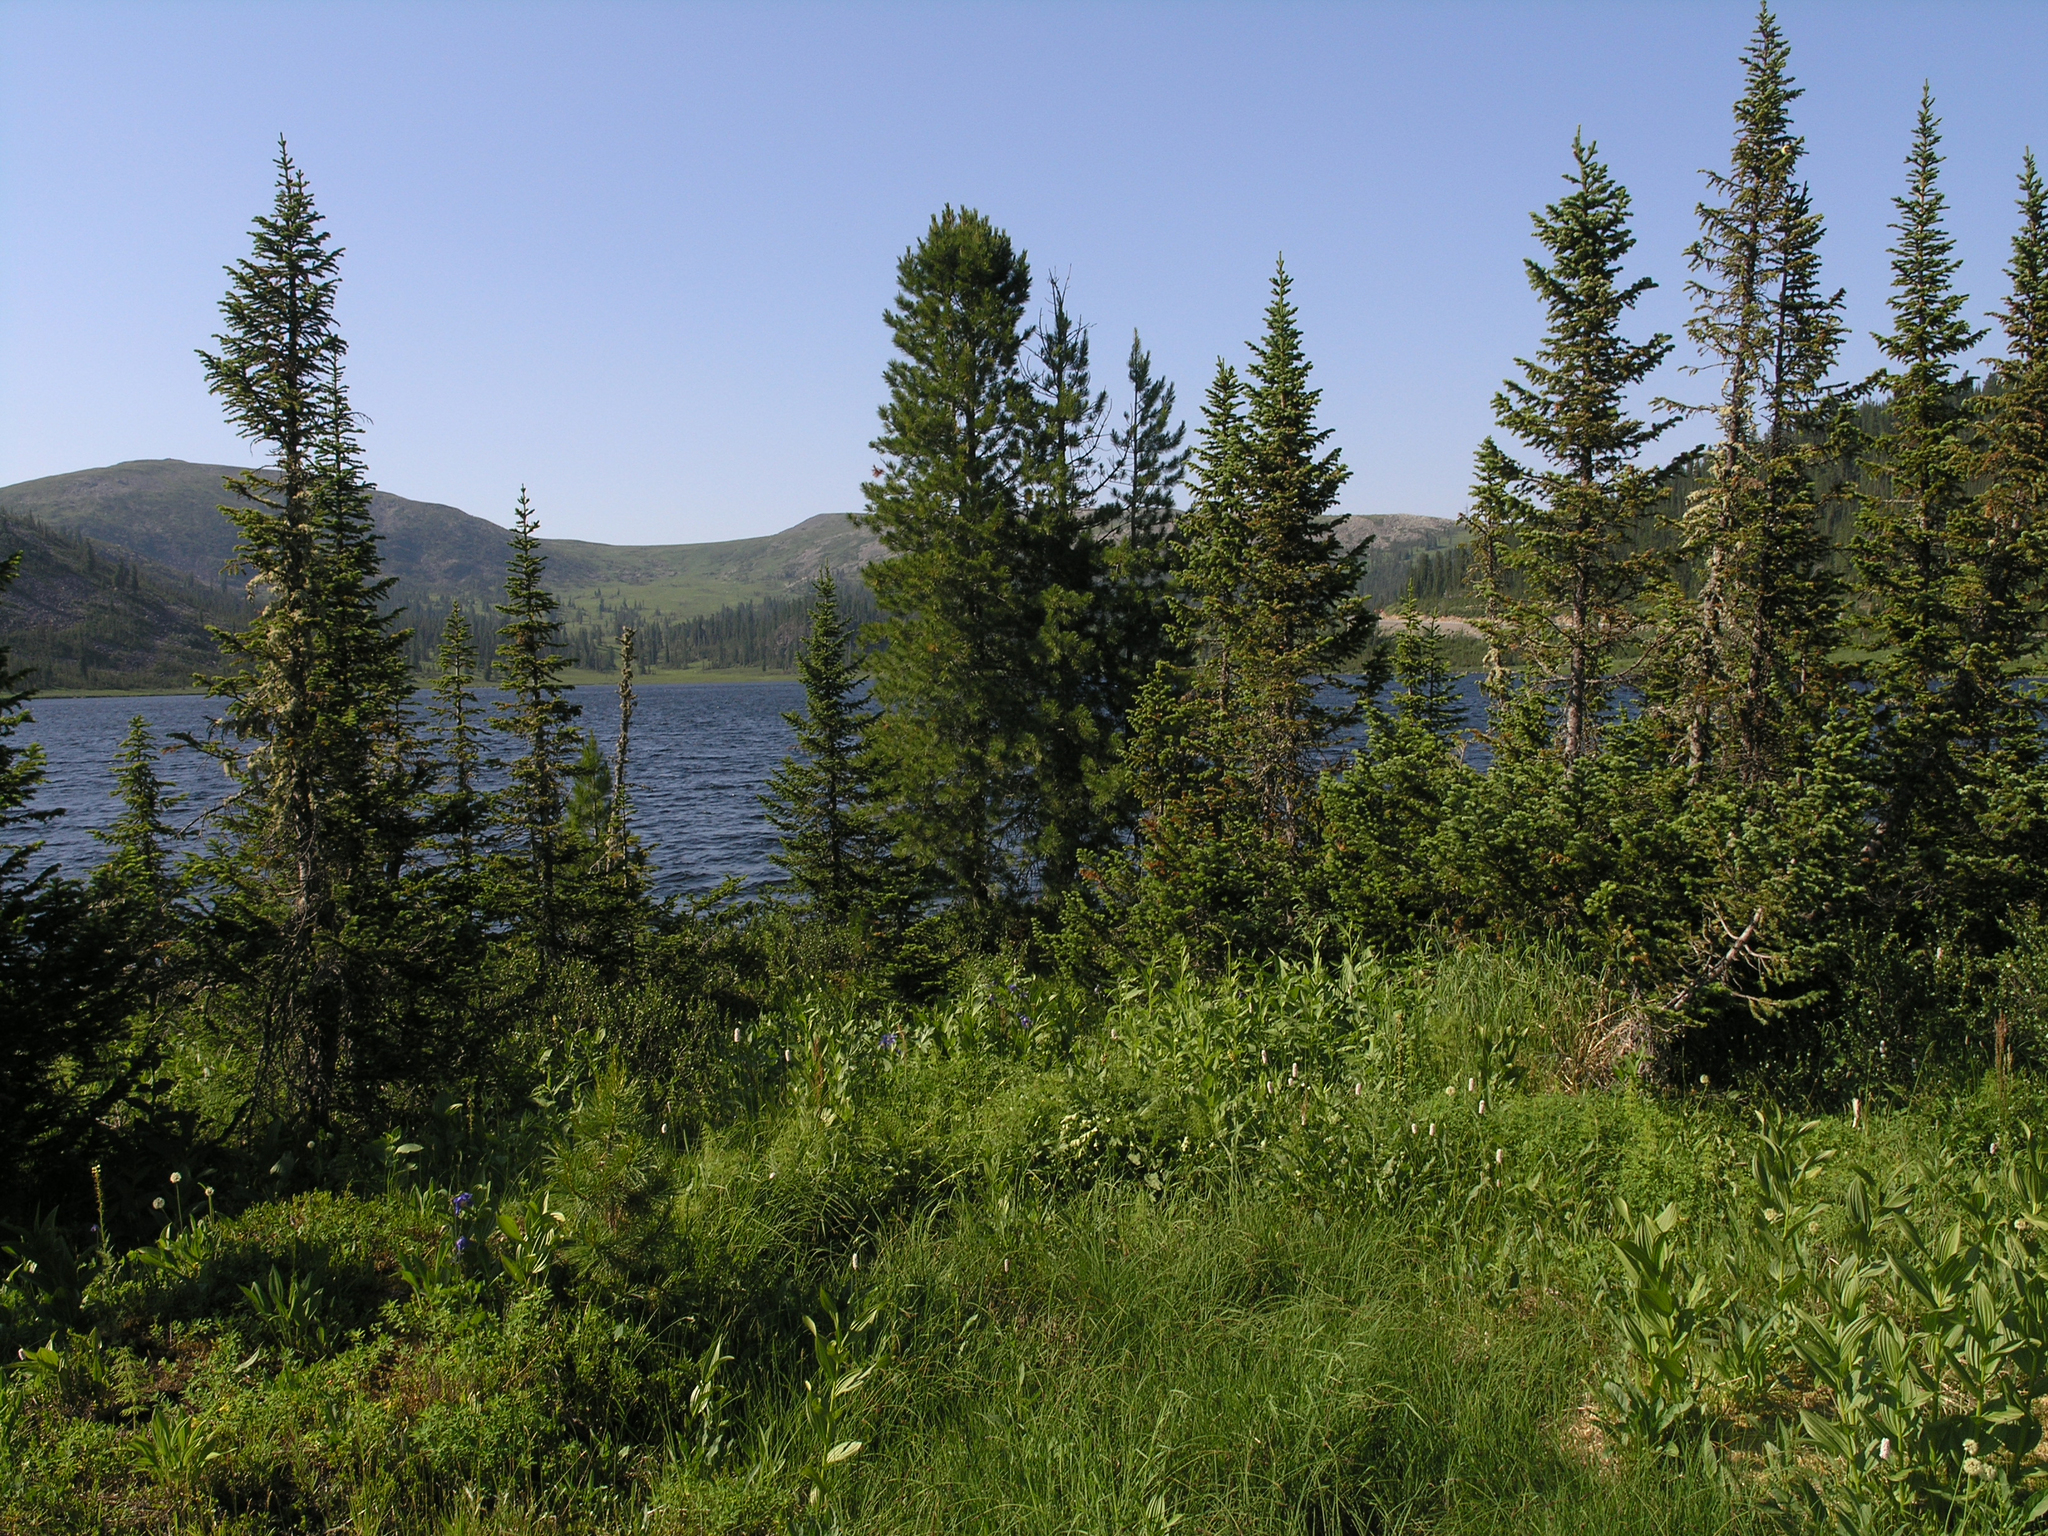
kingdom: Plantae
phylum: Tracheophyta
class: Pinopsida
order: Pinales
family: Pinaceae
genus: Pinus
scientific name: Pinus sibirica
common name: Siberian pine
